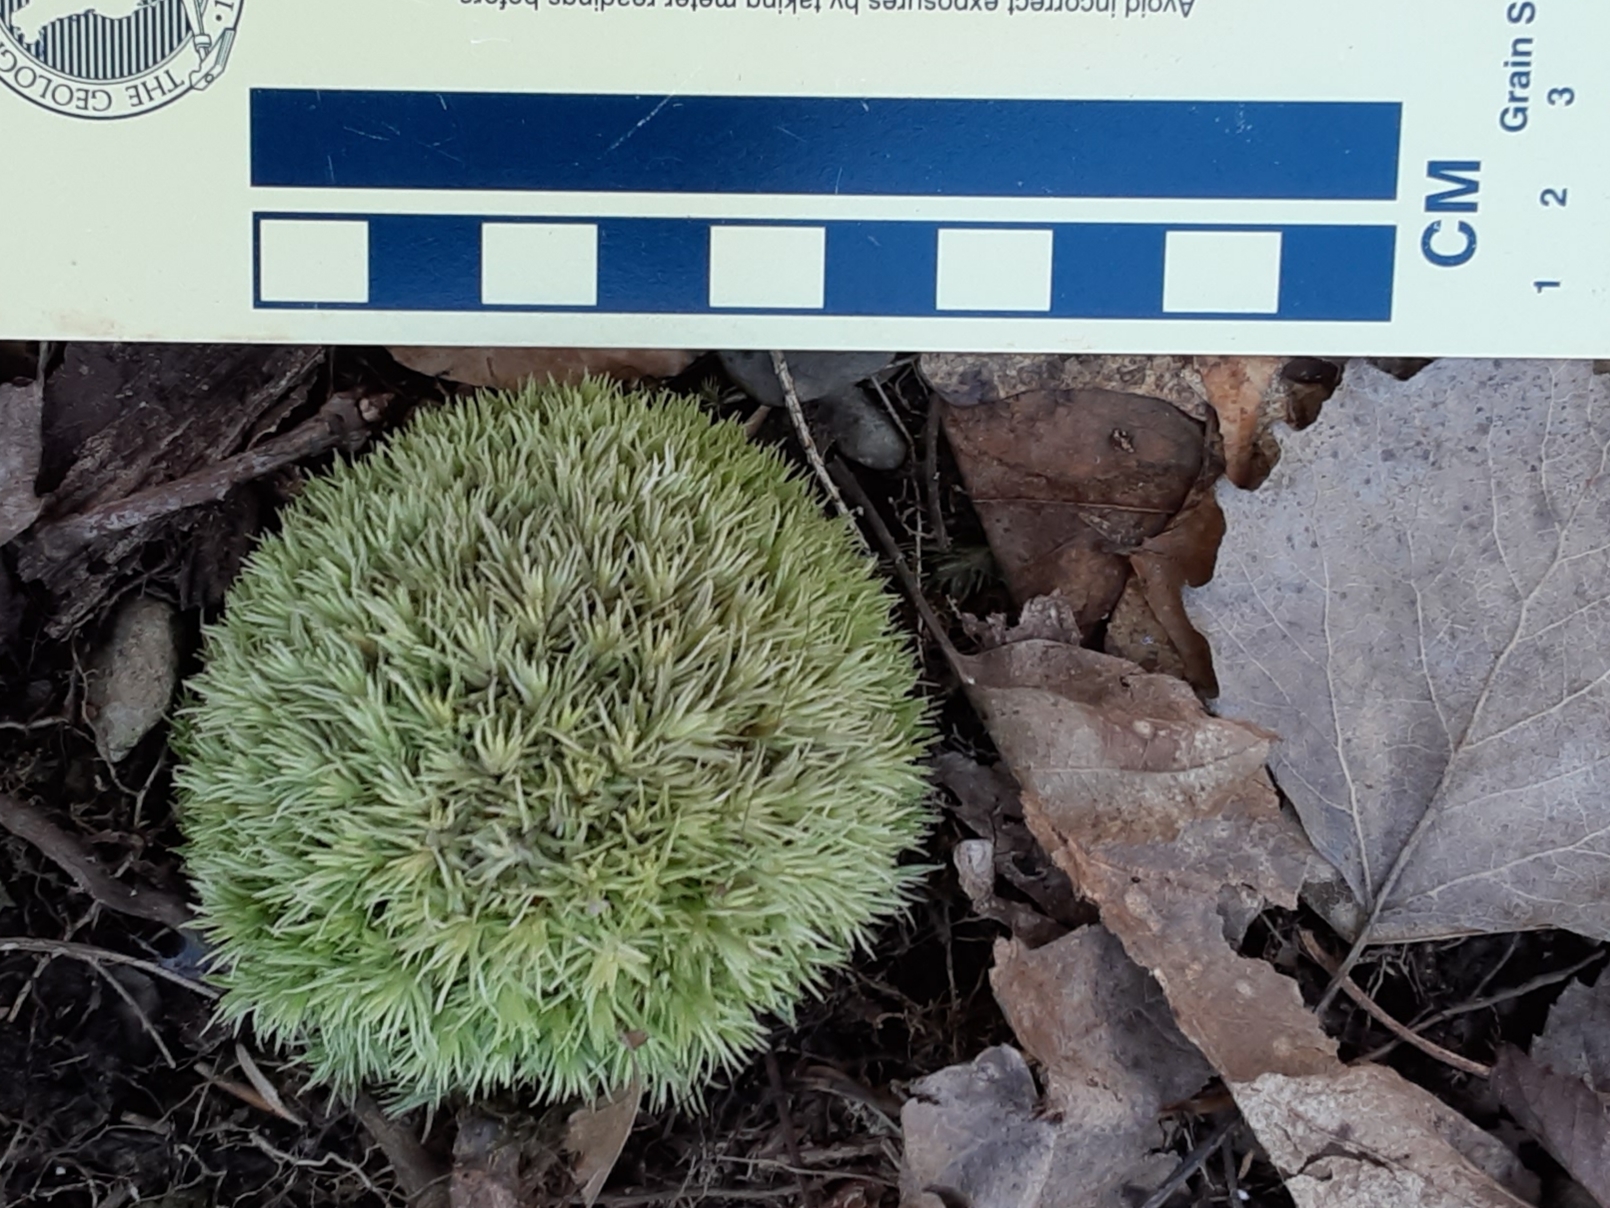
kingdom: Plantae
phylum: Bryophyta
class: Bryopsida
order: Dicranales
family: Leucobryaceae
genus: Leucobryum
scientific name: Leucobryum glaucum
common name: Large white-moss
